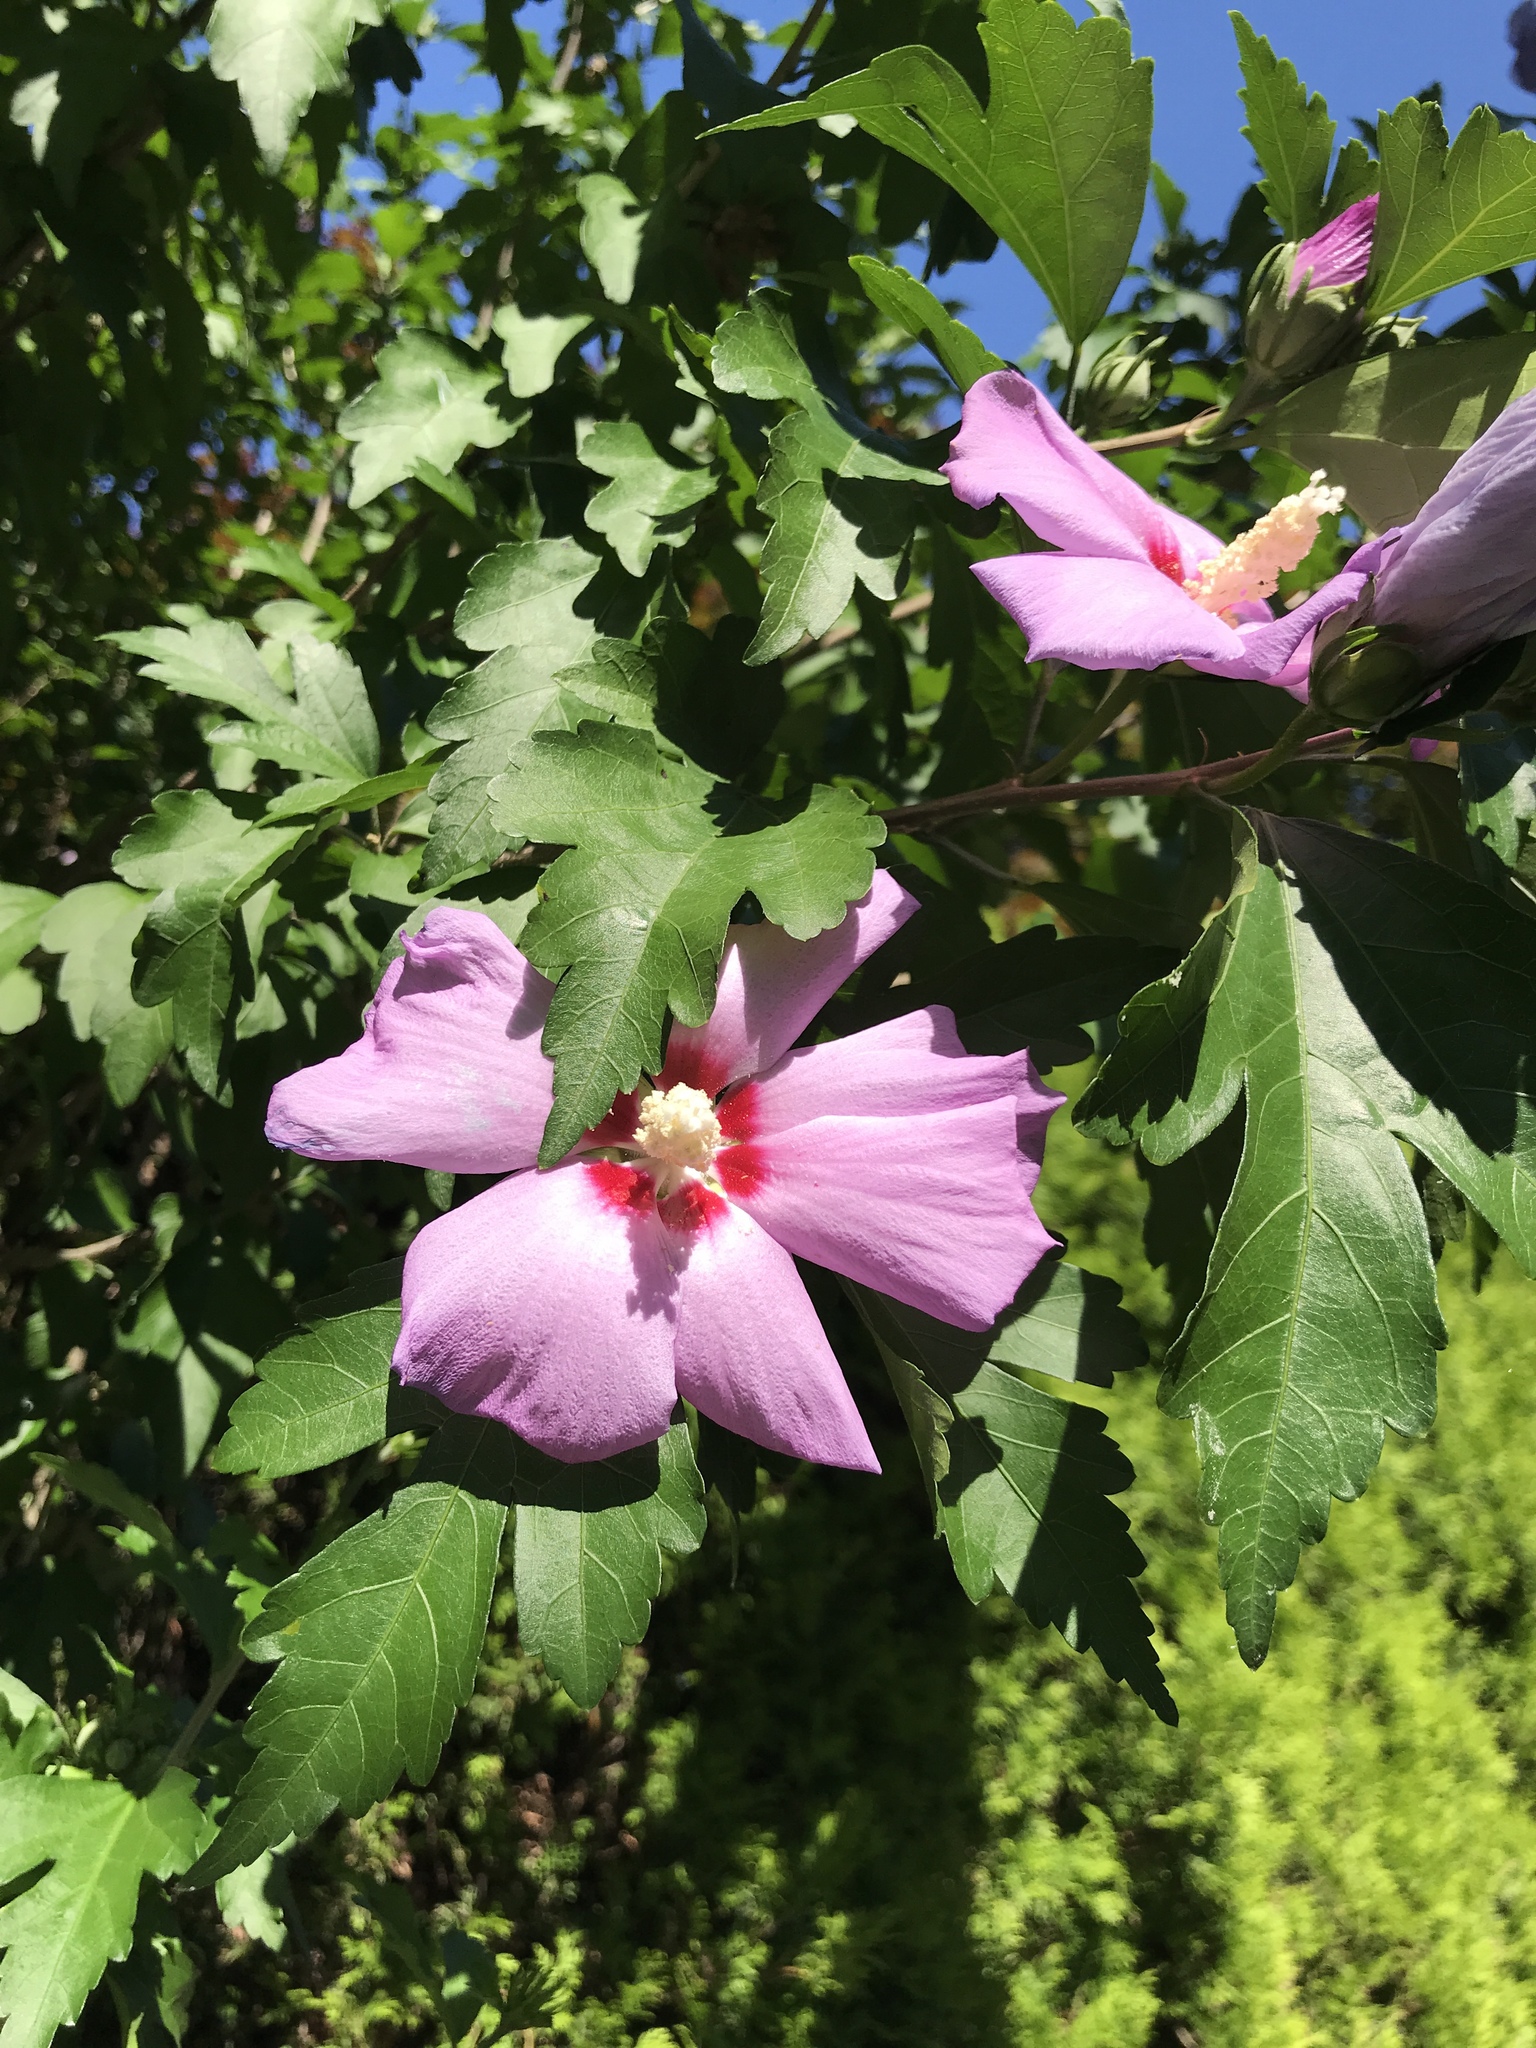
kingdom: Plantae
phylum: Tracheophyta
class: Magnoliopsida
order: Malvales
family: Malvaceae
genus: Hibiscus
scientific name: Hibiscus syriacus
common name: Syrian ketmia
